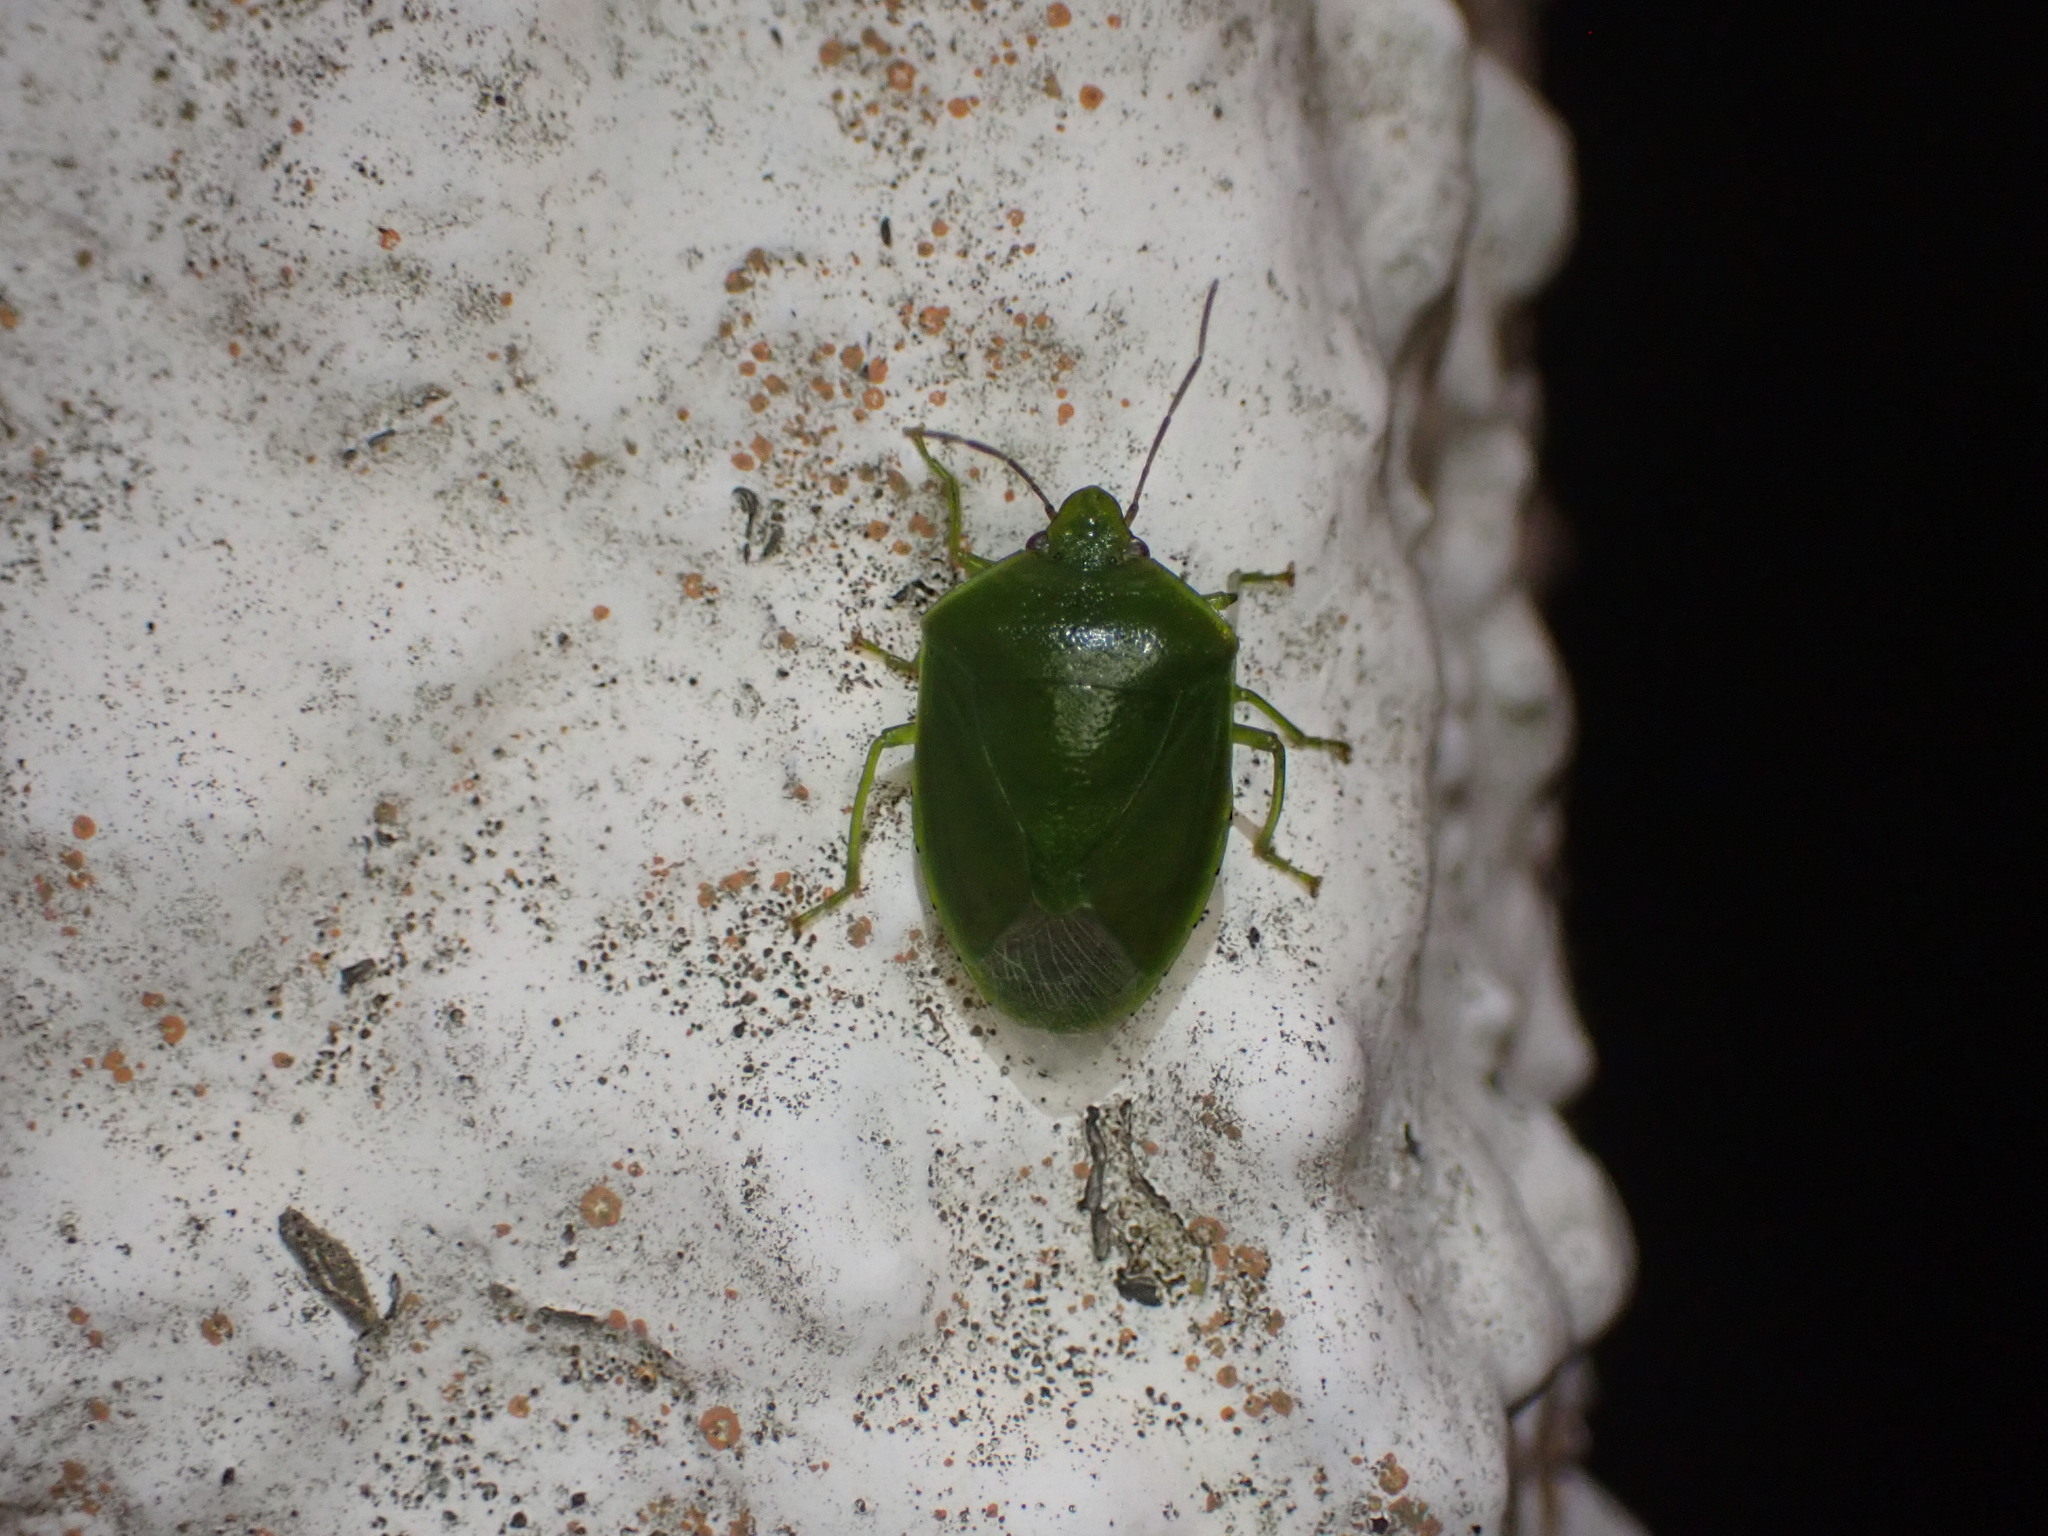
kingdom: Animalia
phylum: Arthropoda
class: Insecta
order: Hemiptera
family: Pentatomidae
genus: Glaucias
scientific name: Glaucias amyota
